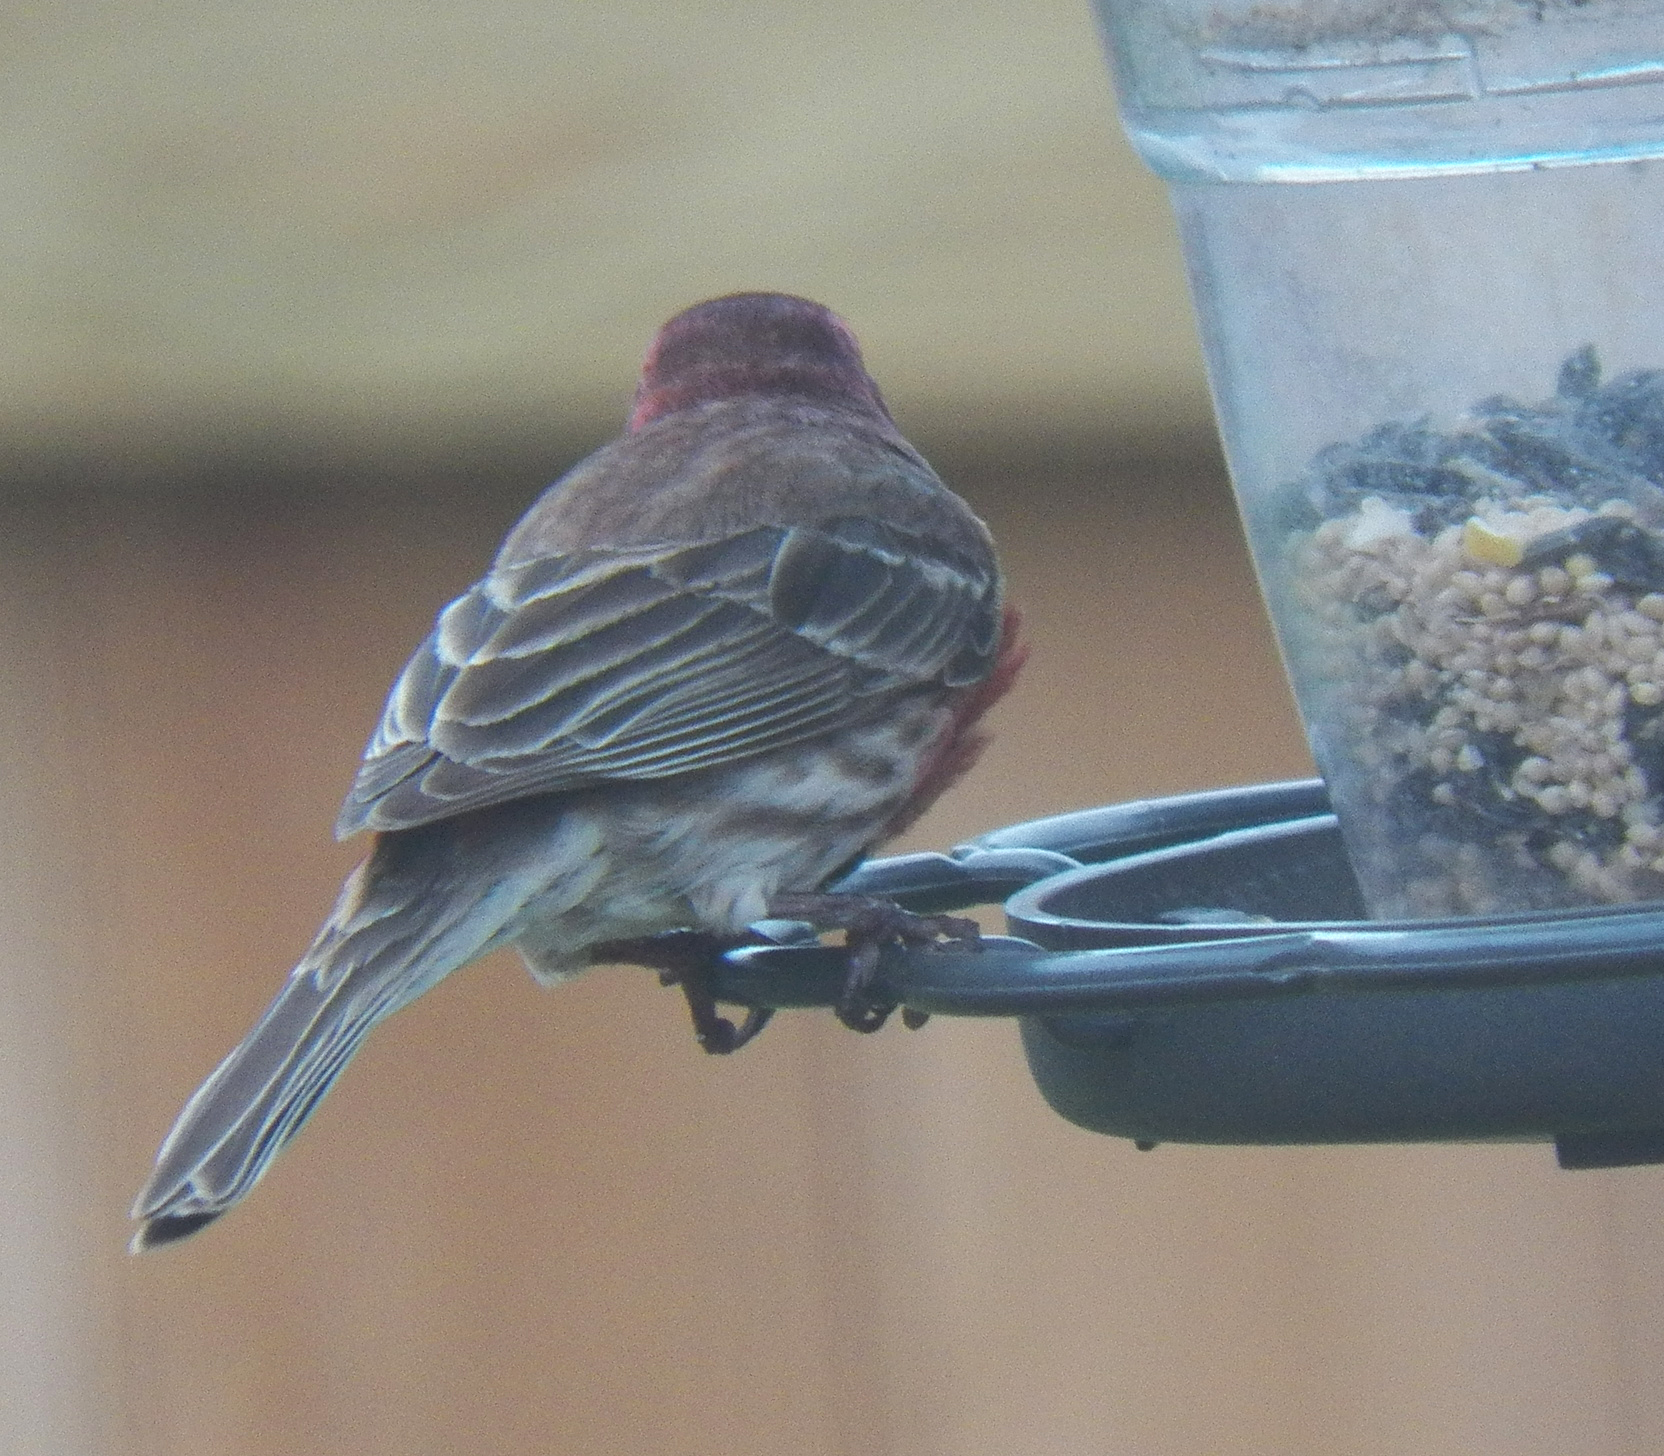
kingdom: Animalia
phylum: Chordata
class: Aves
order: Passeriformes
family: Fringillidae
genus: Haemorhous
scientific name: Haemorhous mexicanus
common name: House finch
